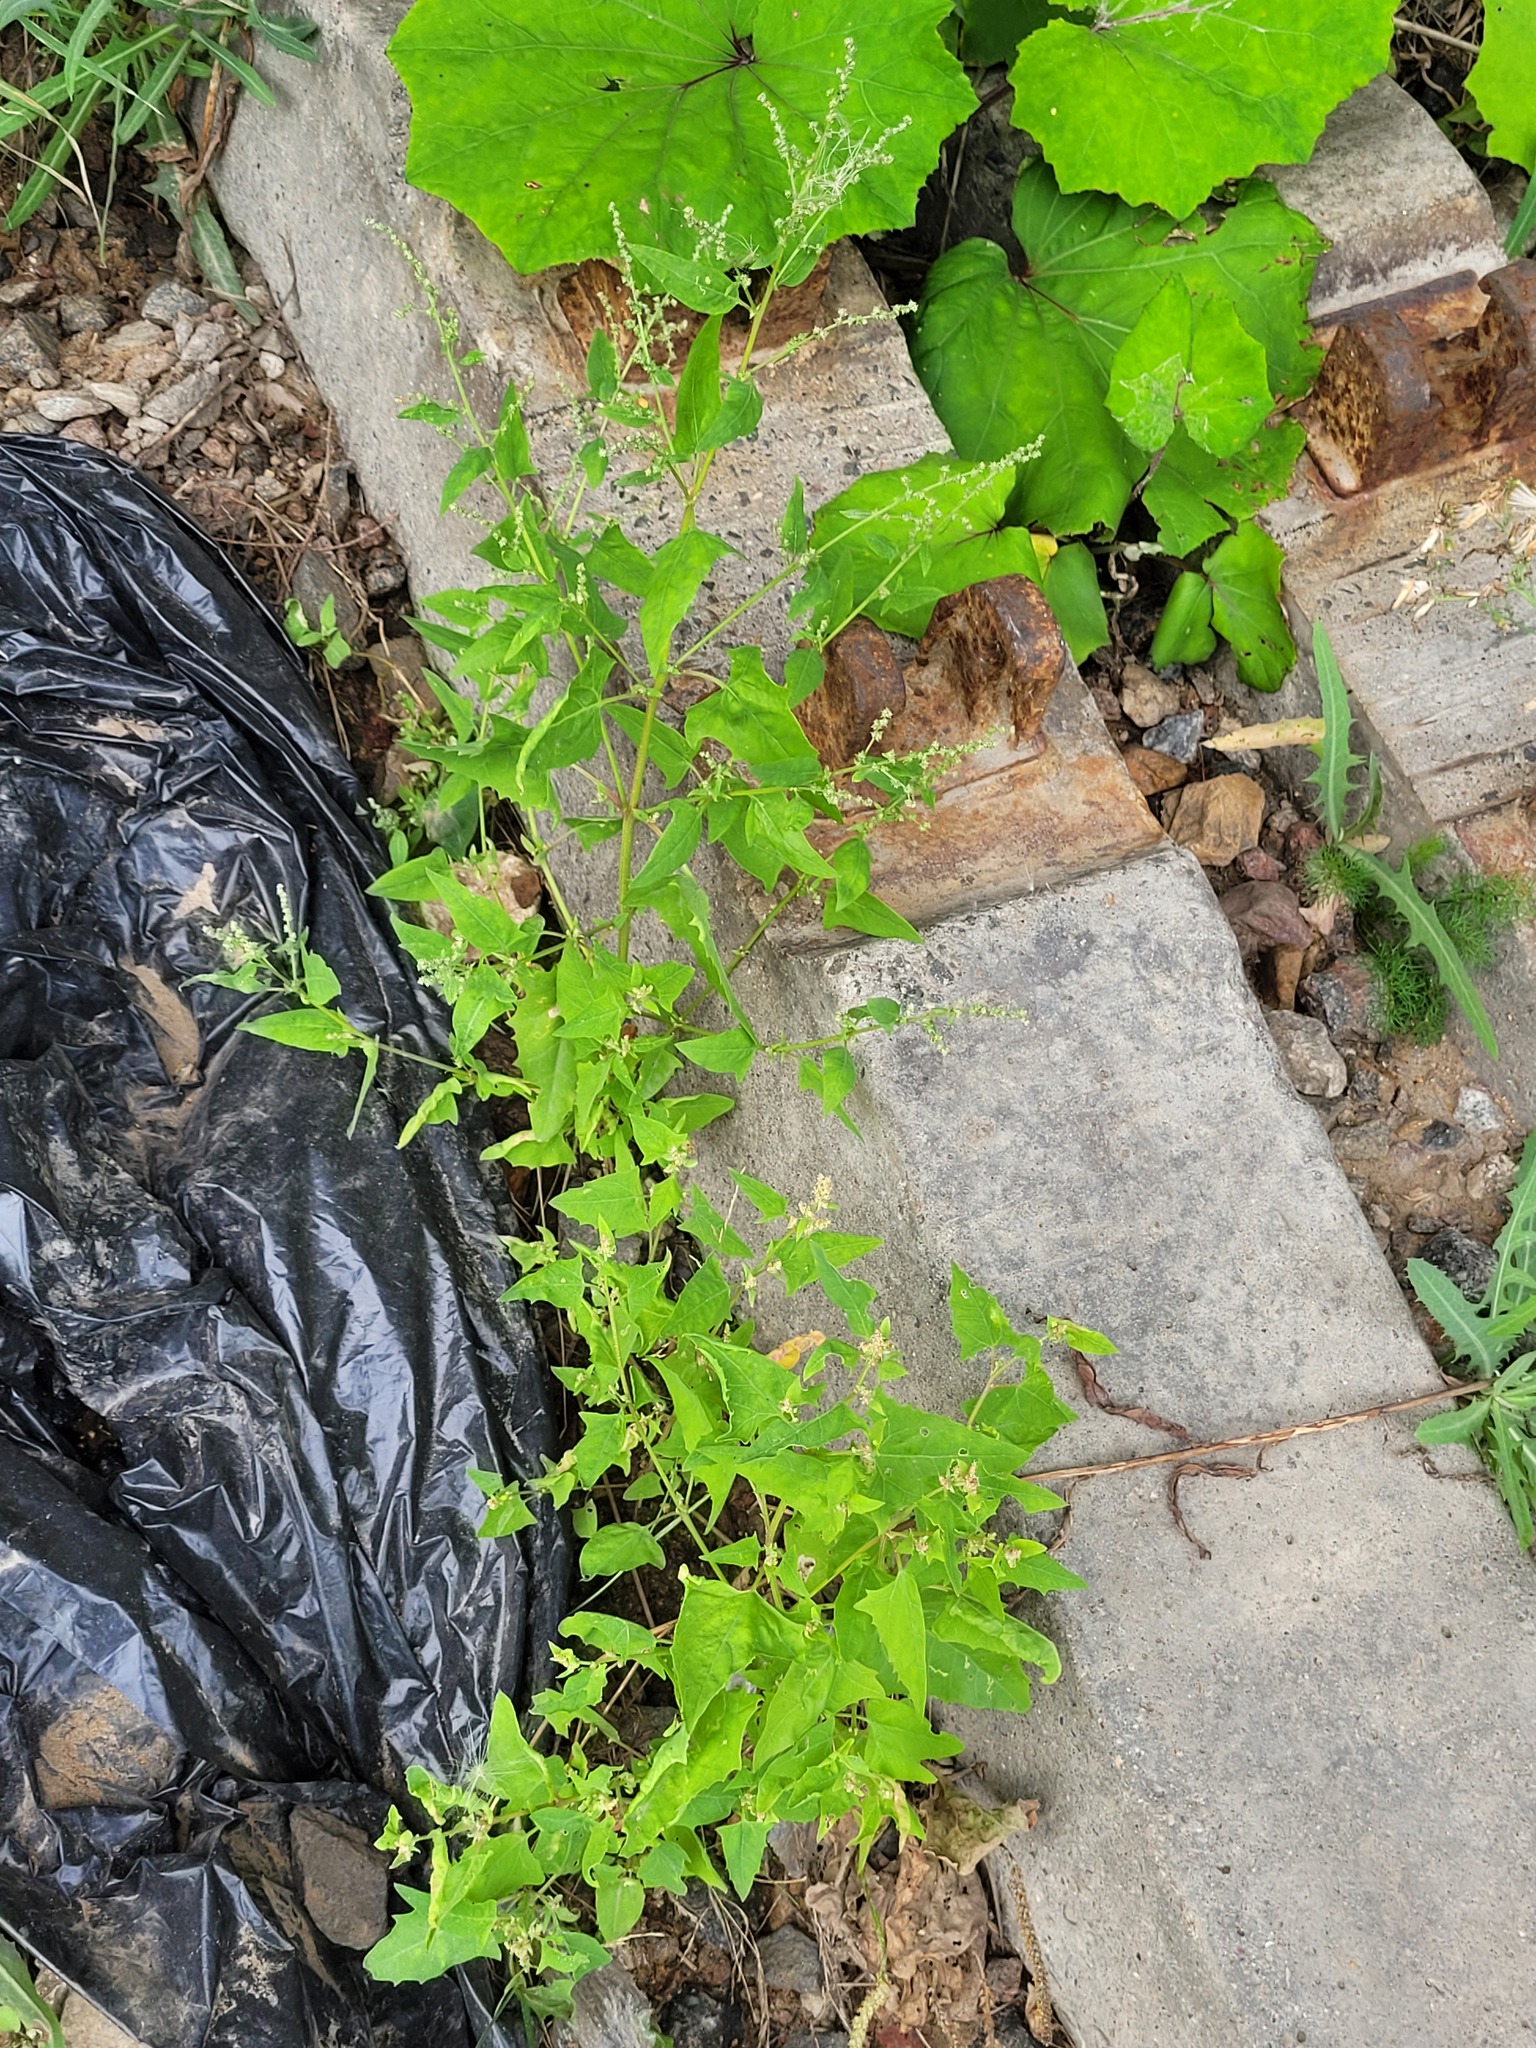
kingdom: Plantae
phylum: Tracheophyta
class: Magnoliopsida
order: Caryophyllales
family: Amaranthaceae
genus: Atriplex
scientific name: Atriplex prostrata
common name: Spear-leaved orache
